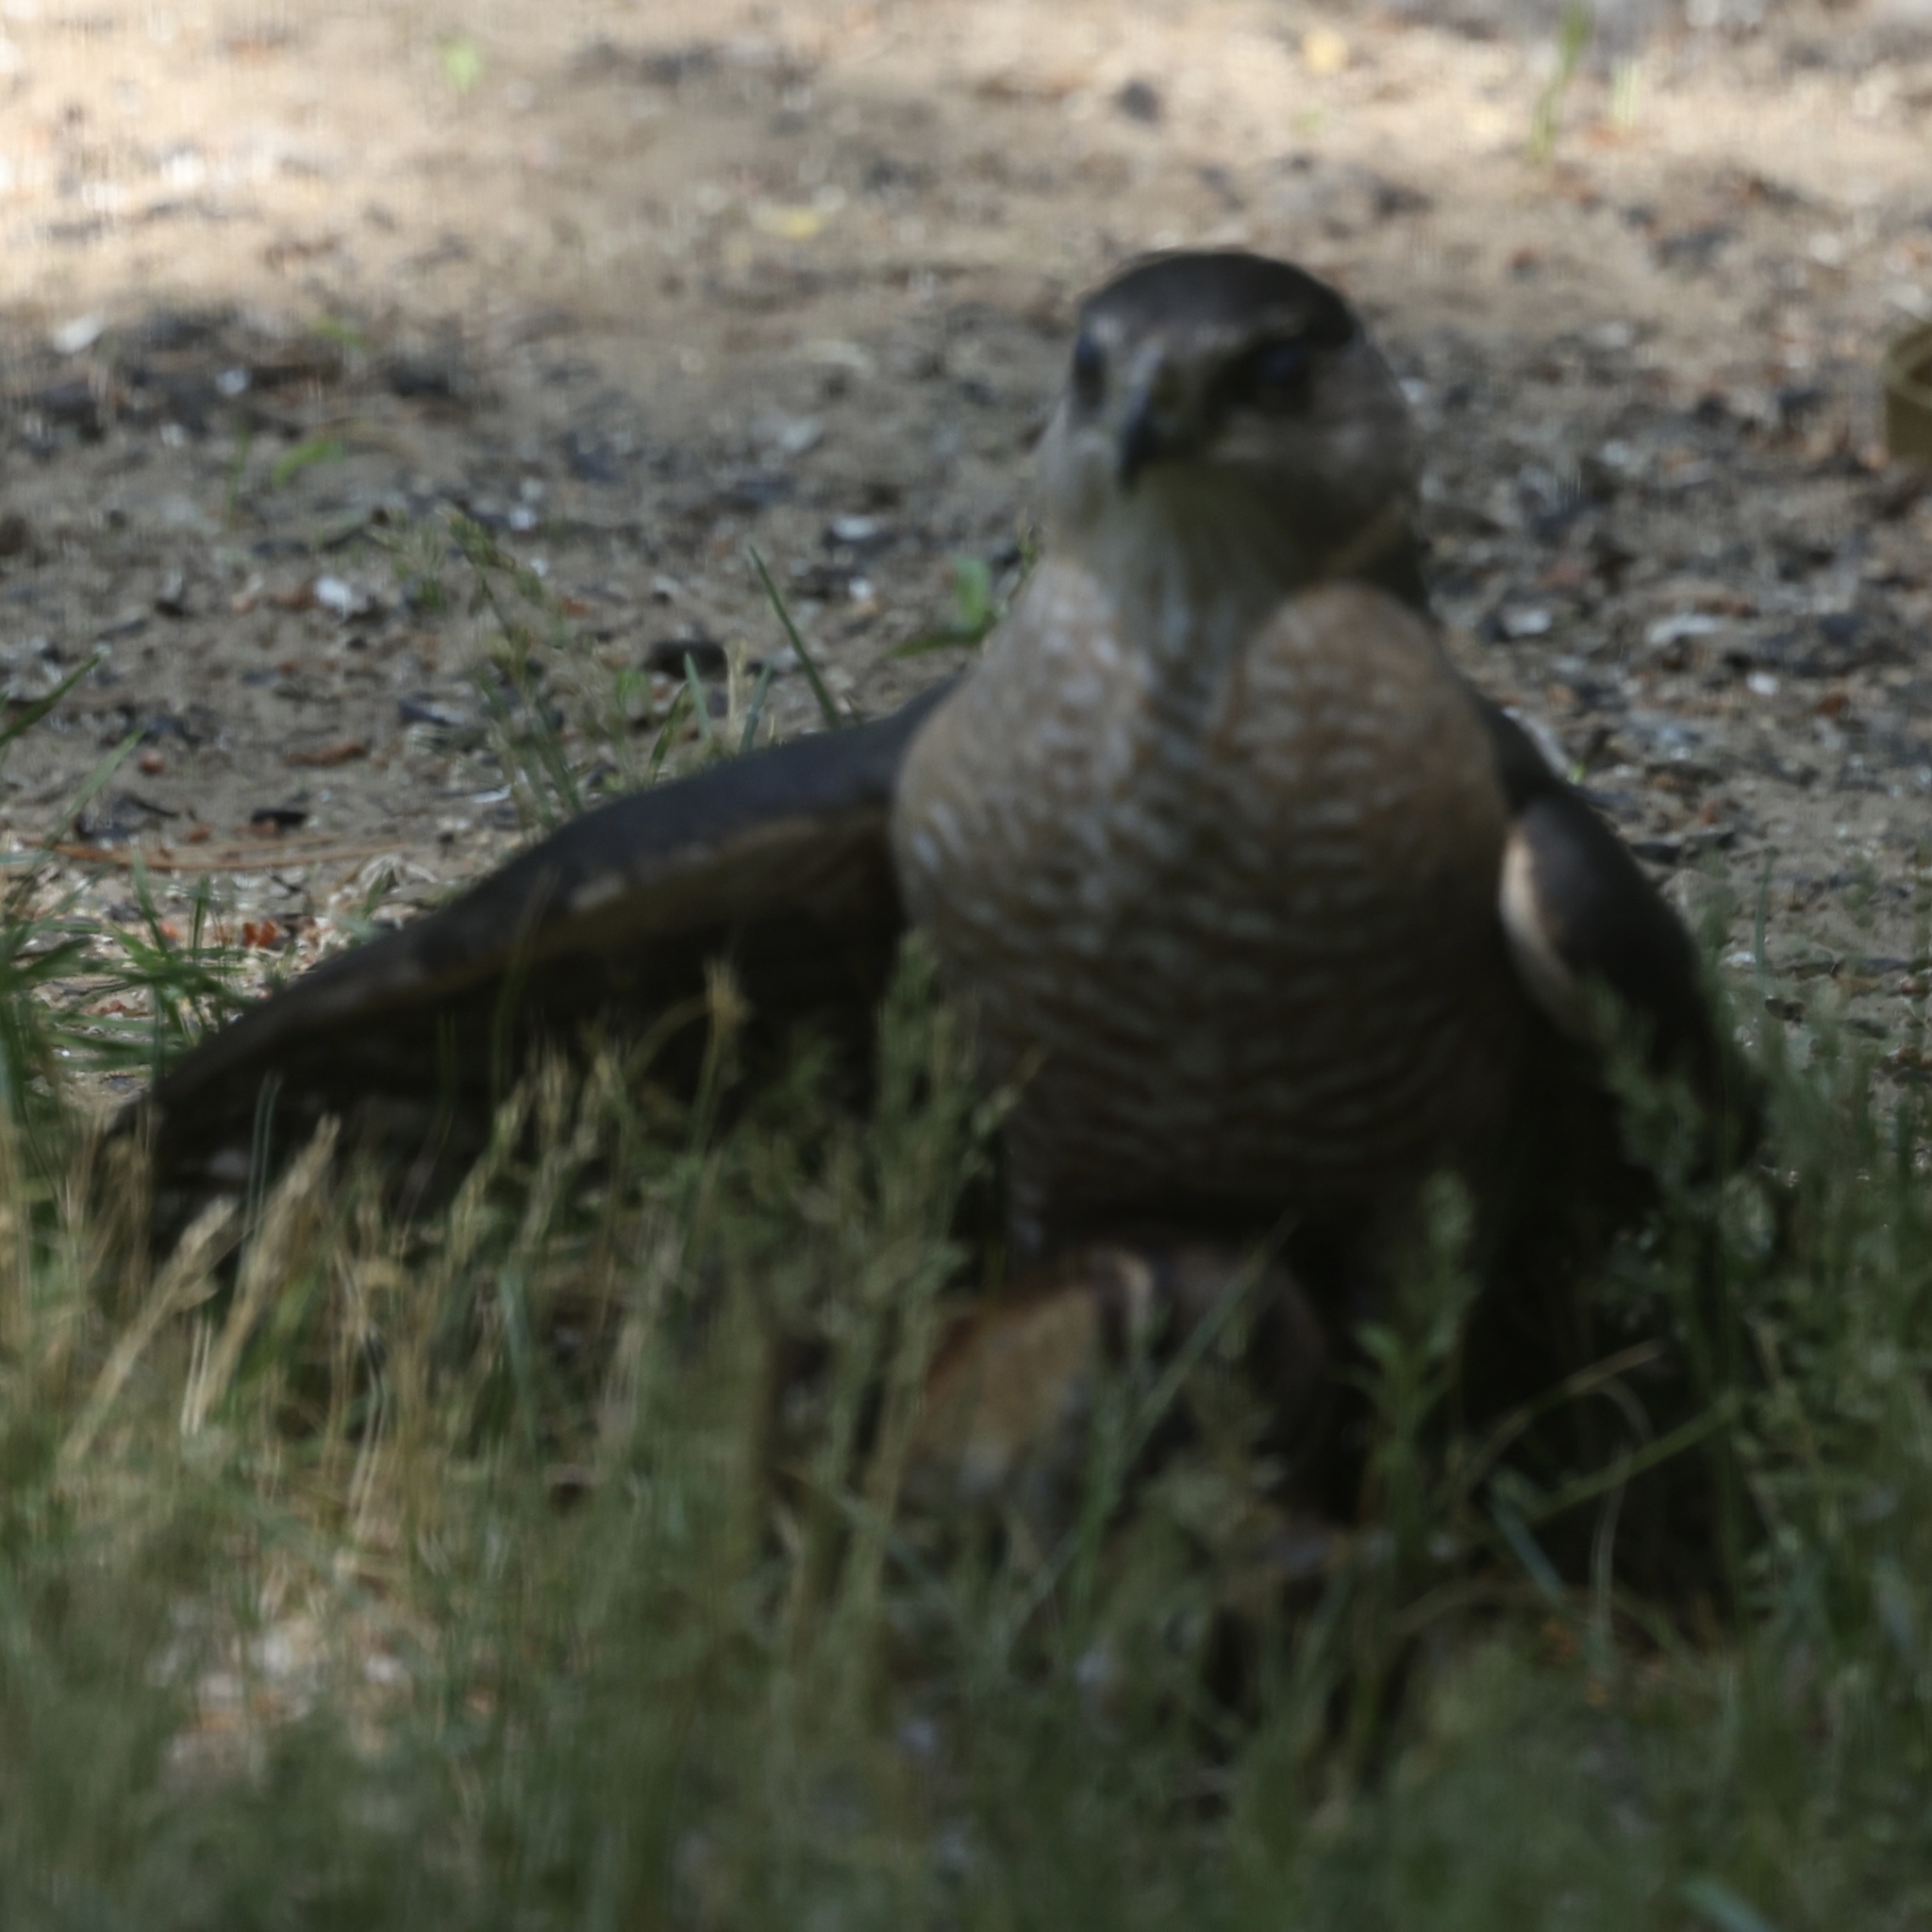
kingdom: Animalia
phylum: Chordata
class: Aves
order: Accipitriformes
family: Accipitridae
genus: Accipiter
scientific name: Accipiter cooperii
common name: Cooper's hawk
